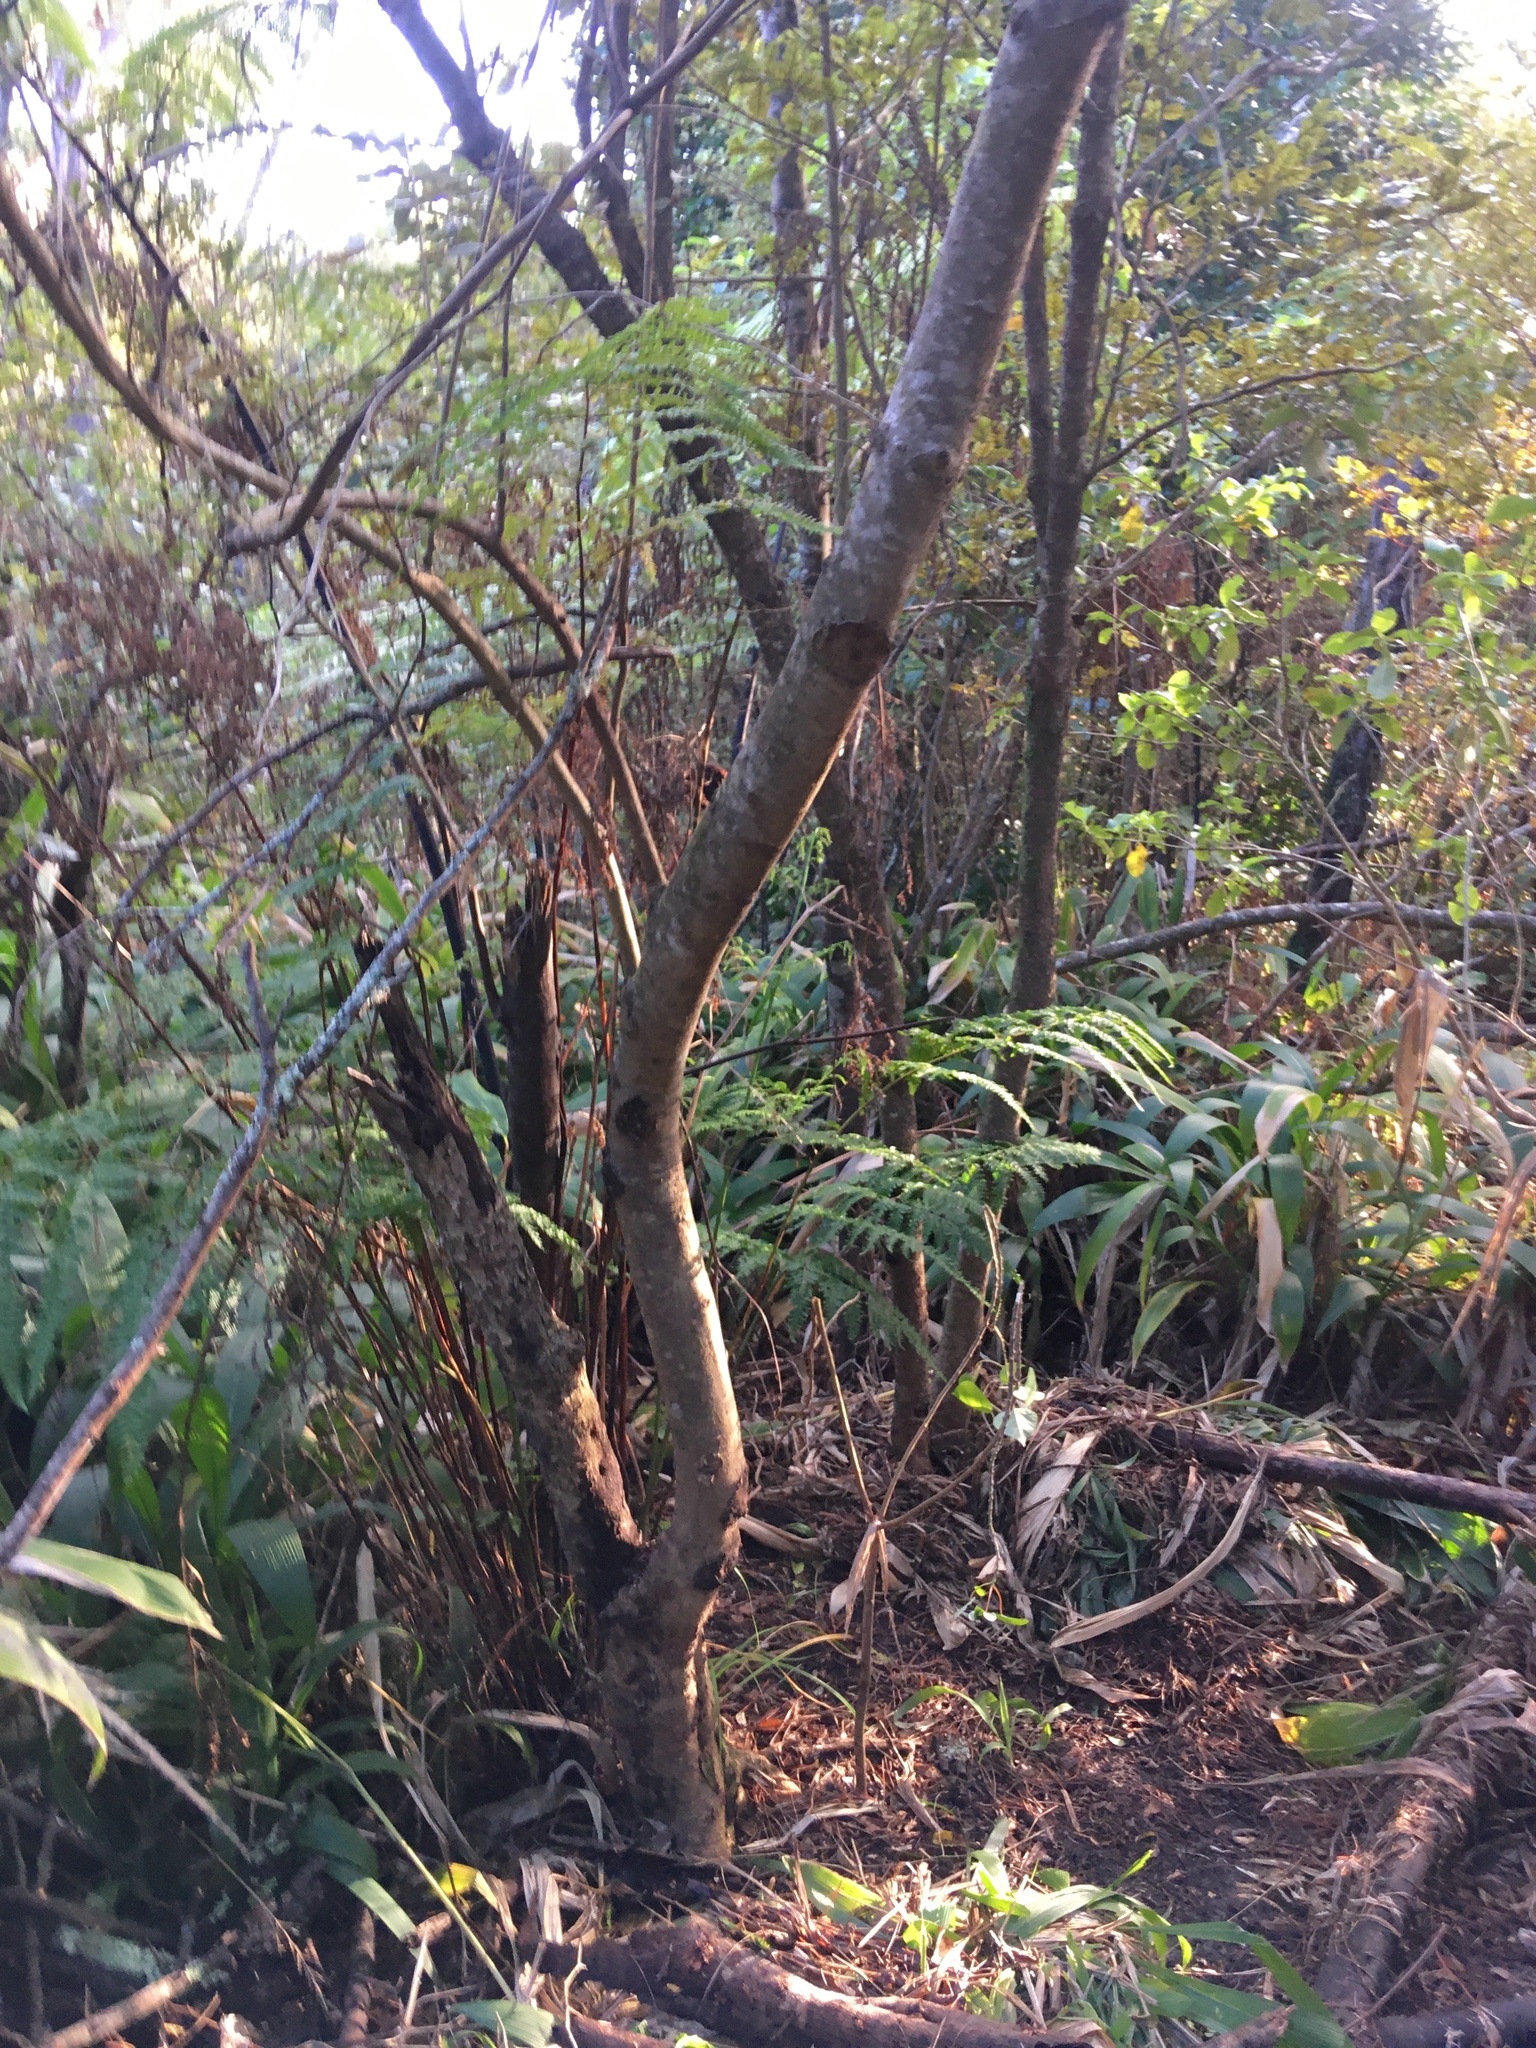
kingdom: Plantae
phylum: Tracheophyta
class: Magnoliopsida
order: Asterales
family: Rousseaceae
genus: Carpodetus
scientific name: Carpodetus serratus
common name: White mapau
